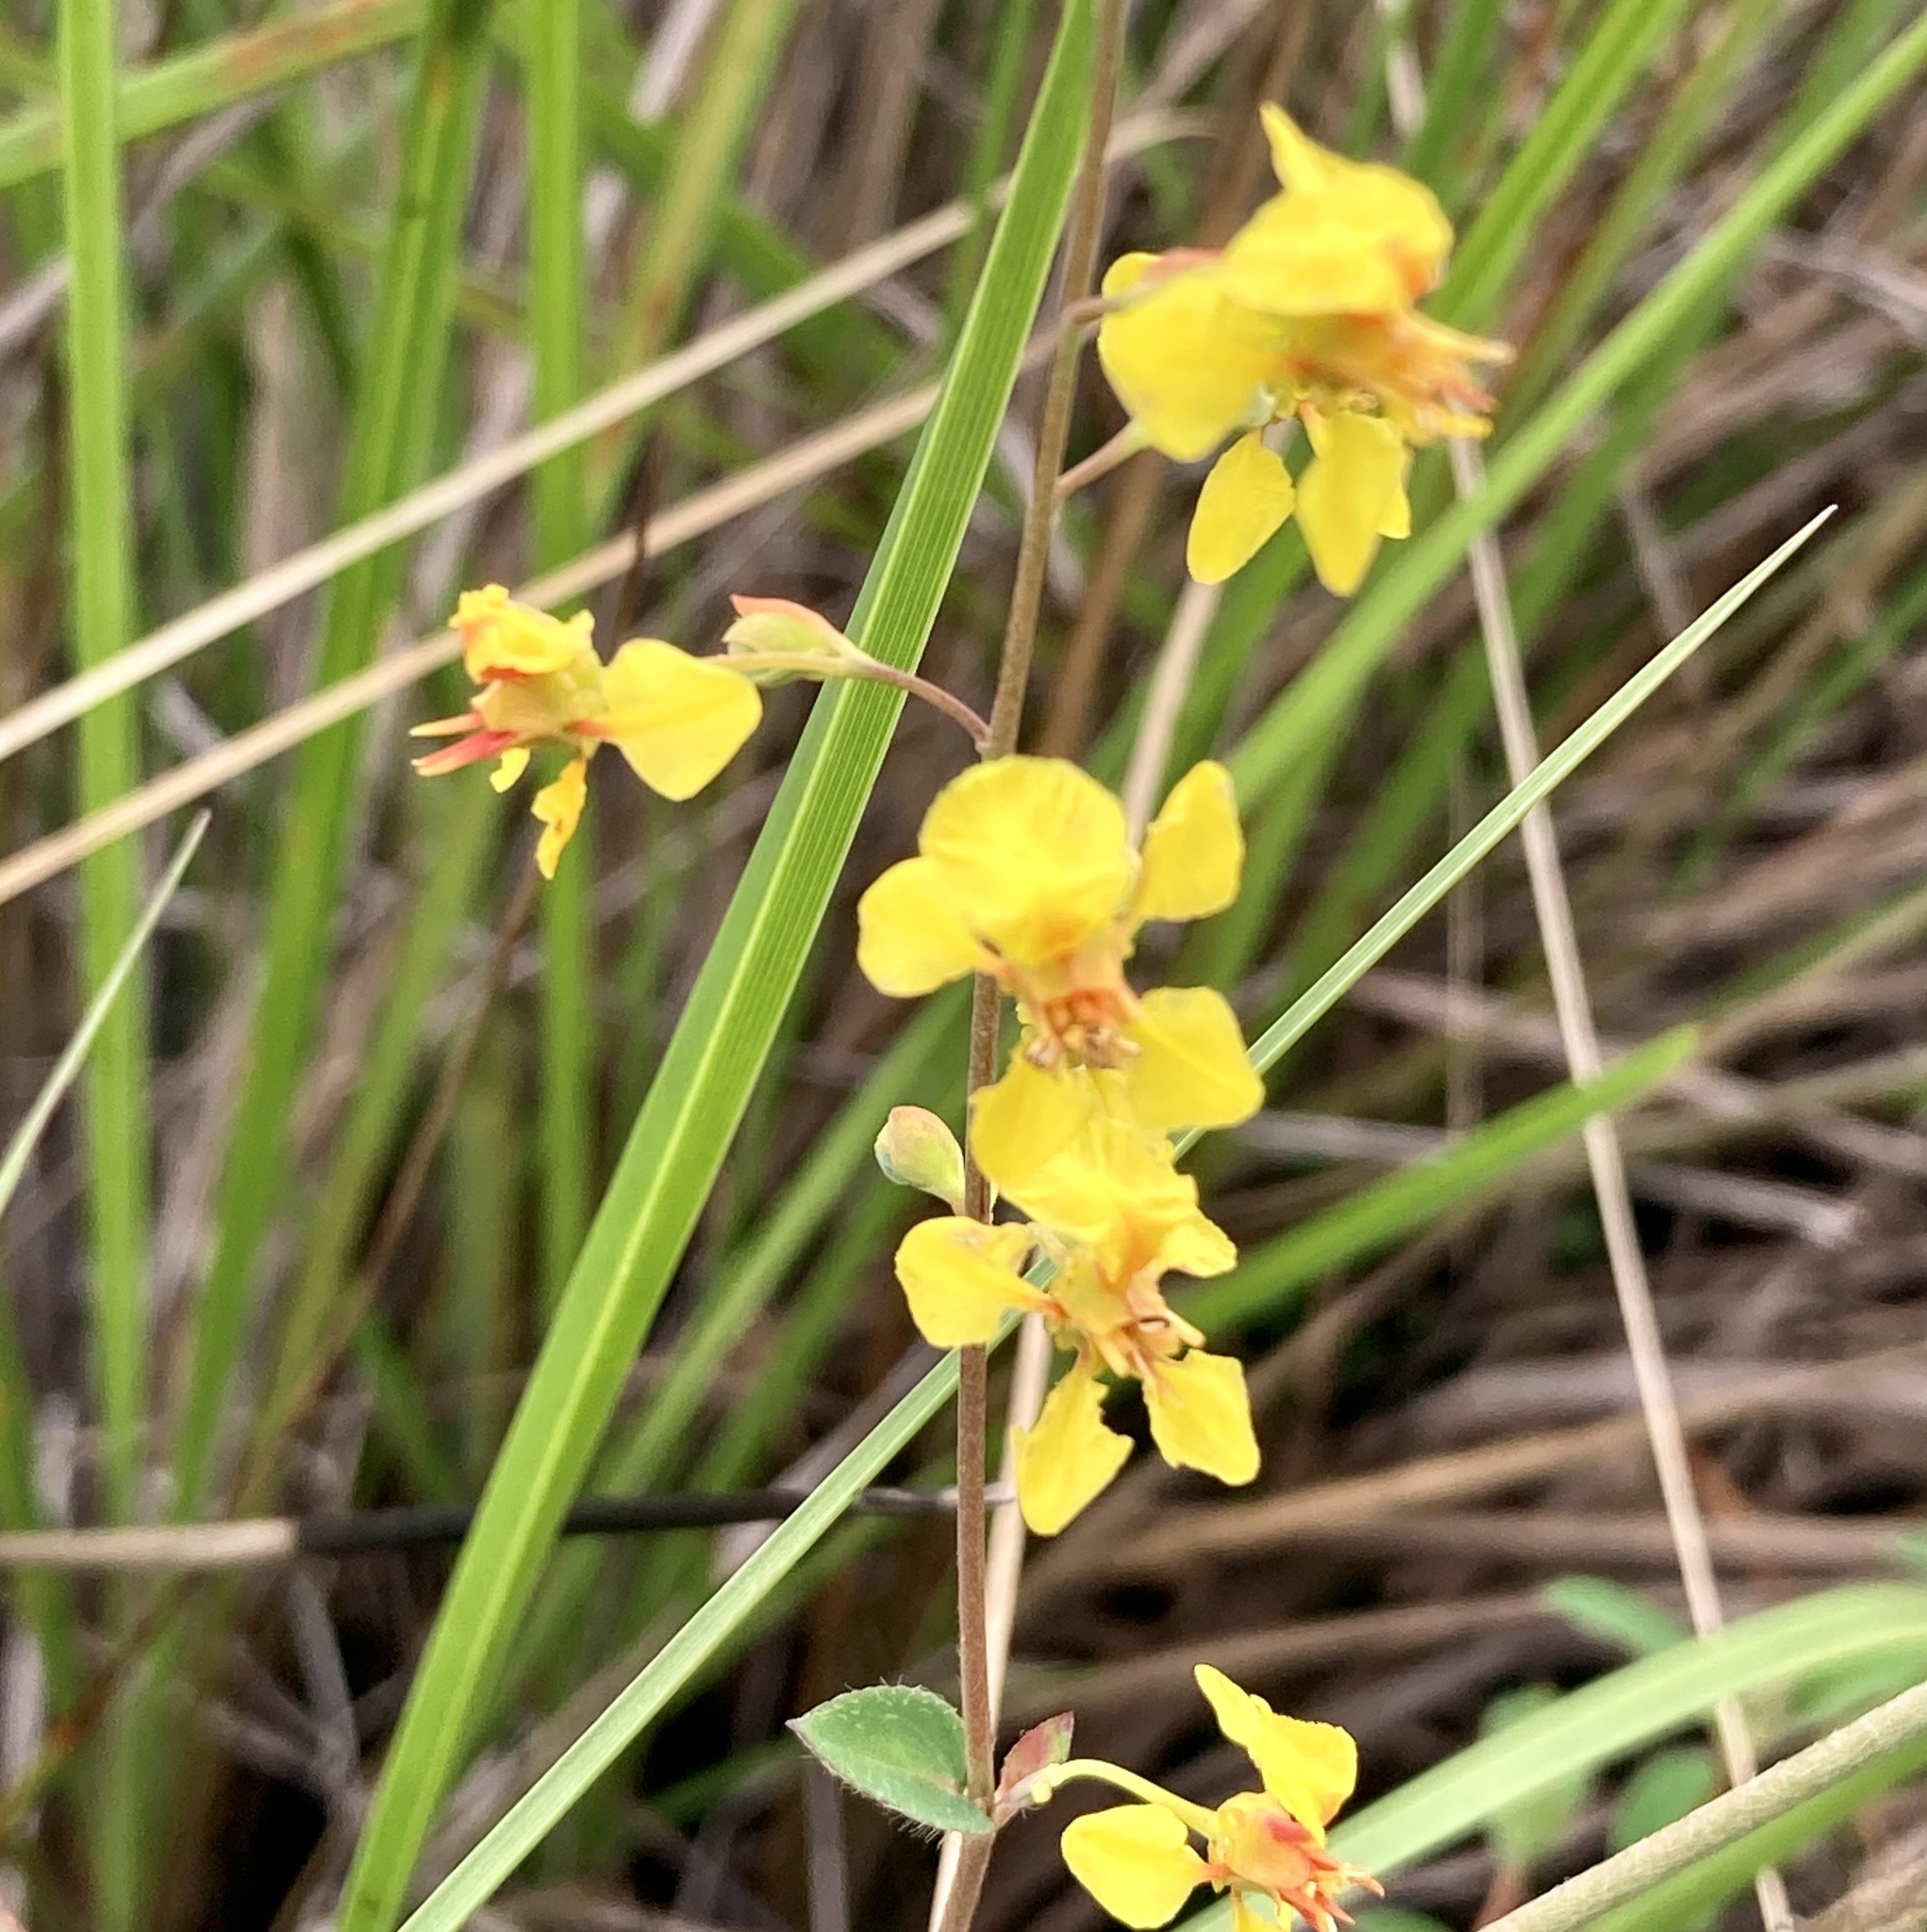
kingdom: Plantae
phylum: Tracheophyta
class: Magnoliopsida
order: Malpighiales
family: Malpighiaceae
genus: Diacidia
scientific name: Diacidia galphimioides
